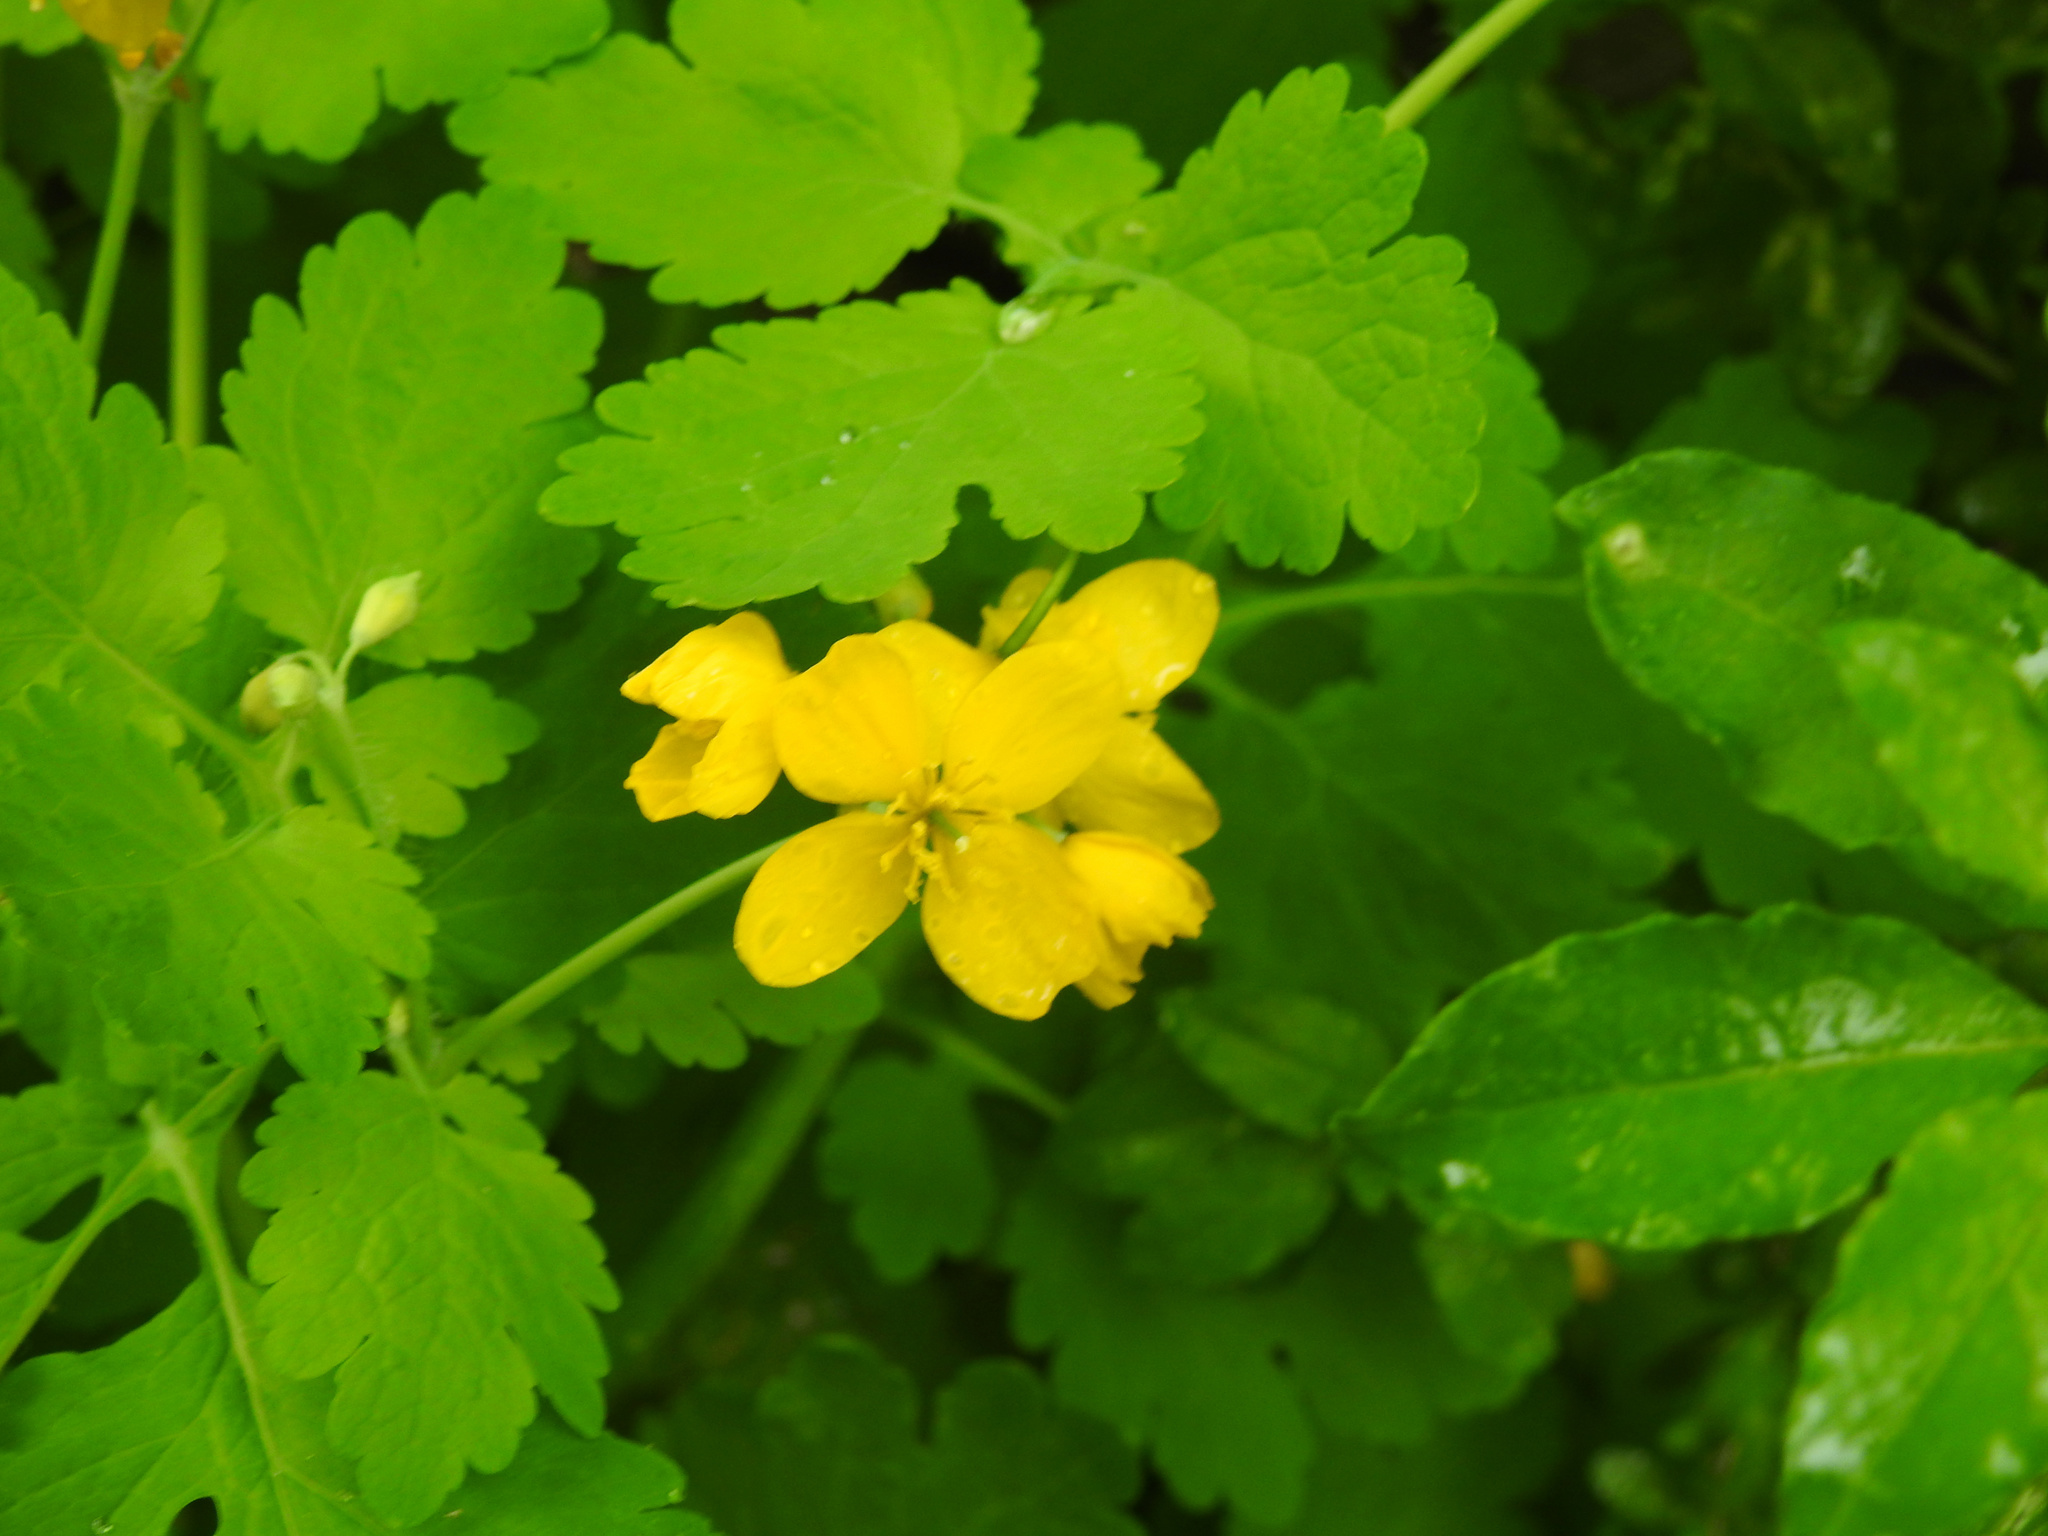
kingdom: Plantae
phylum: Tracheophyta
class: Magnoliopsida
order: Ranunculales
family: Papaveraceae
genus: Chelidonium
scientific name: Chelidonium majus
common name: Greater celandine
